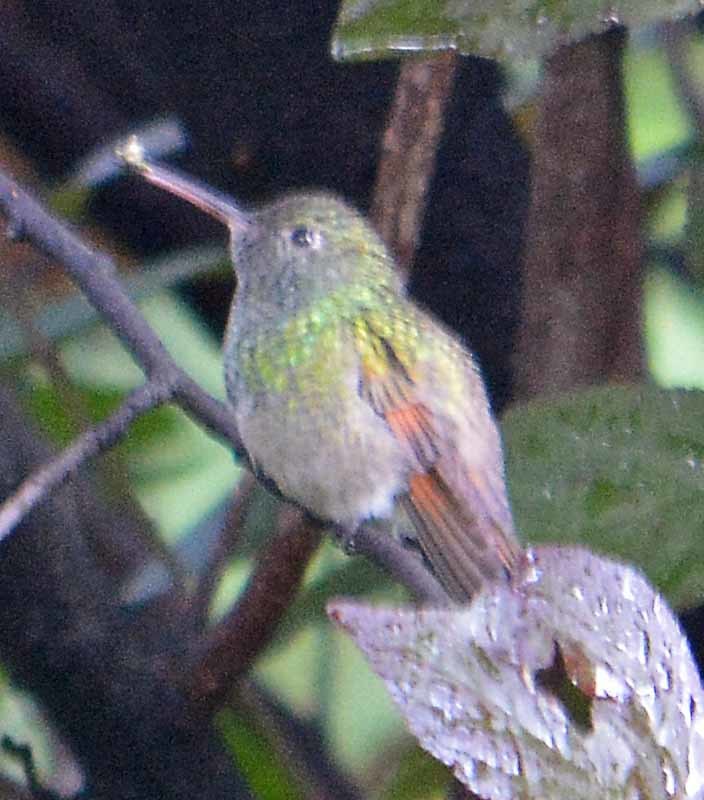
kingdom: Animalia
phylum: Chordata
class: Aves
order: Apodiformes
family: Trochilidae
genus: Saucerottia
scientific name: Saucerottia beryllina
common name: Berylline hummingbird
